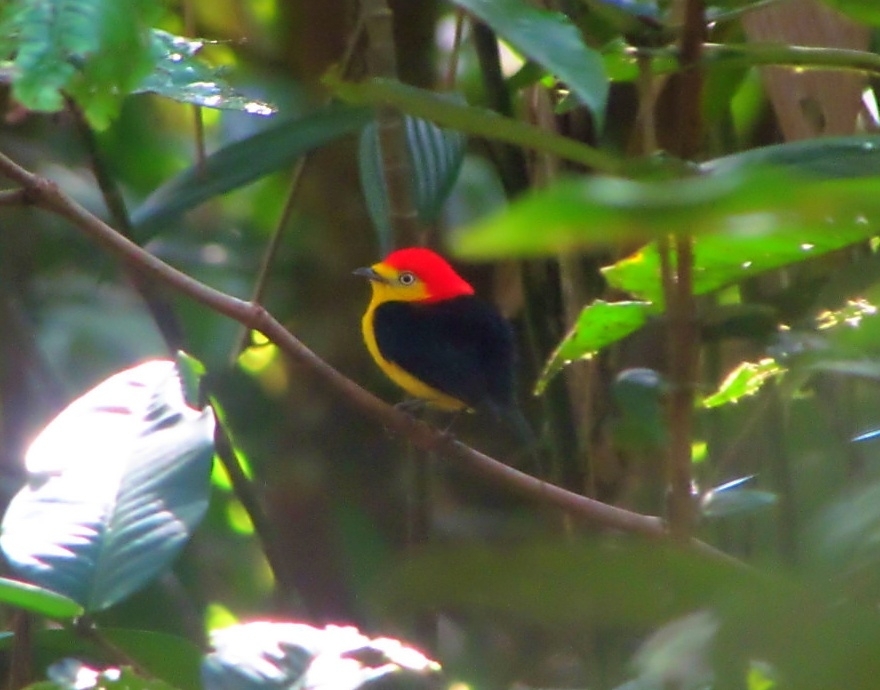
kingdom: Animalia
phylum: Chordata
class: Aves
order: Passeriformes
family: Pipridae
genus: Pipra
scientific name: Pipra filicauda
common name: Wire-tailed manakin
